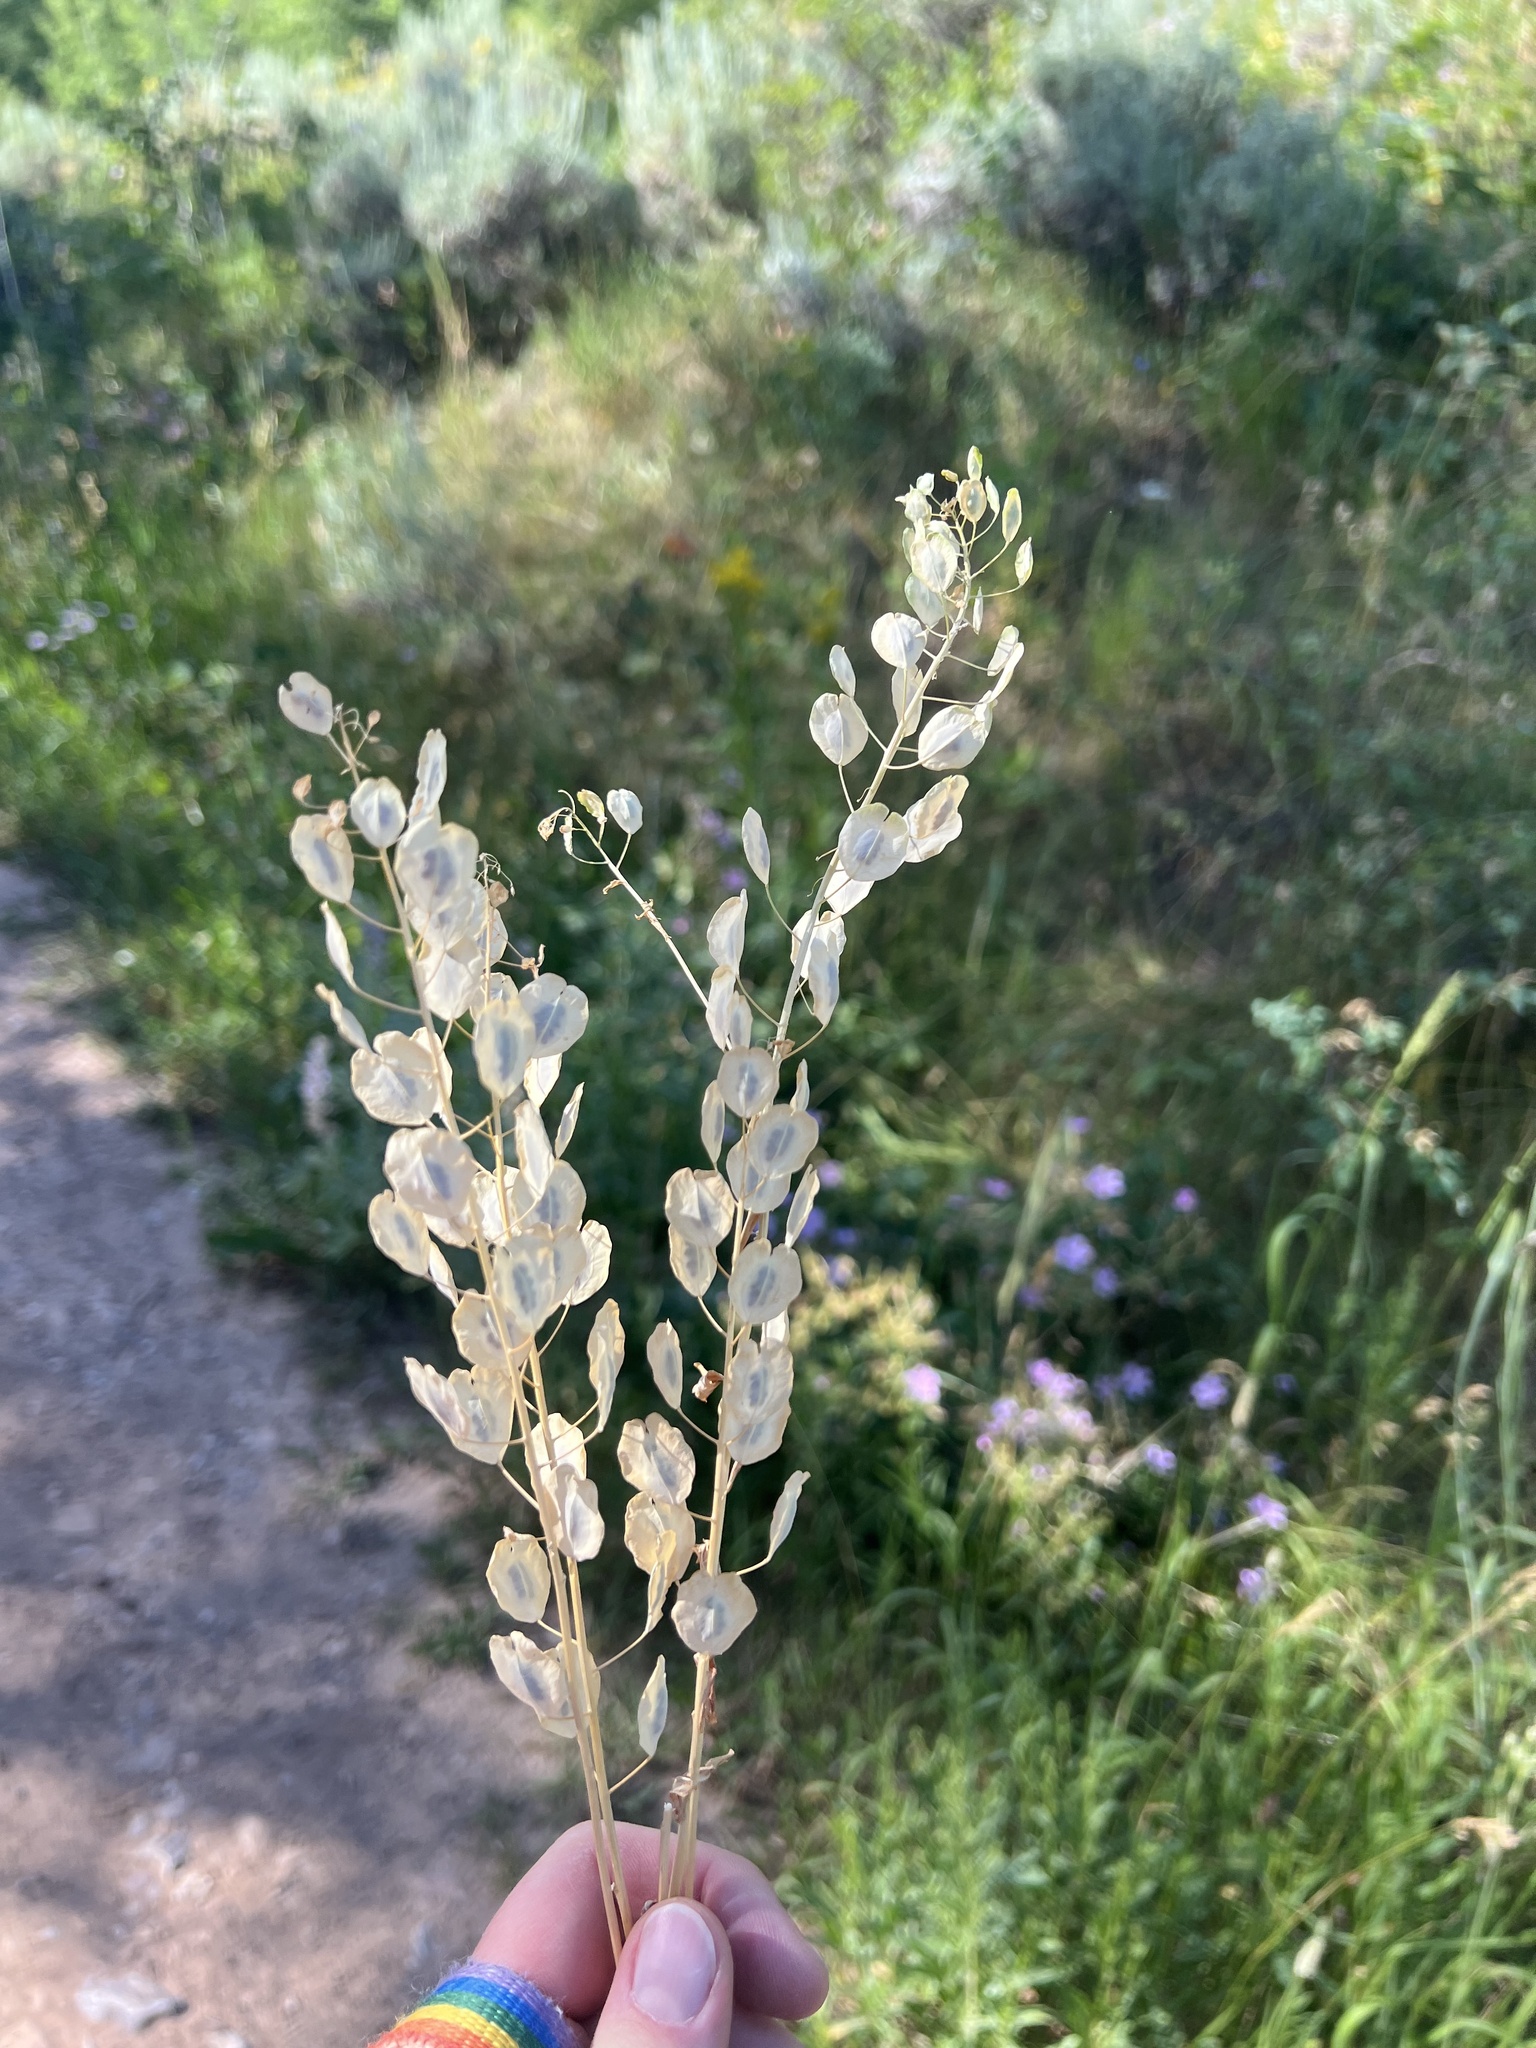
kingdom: Plantae
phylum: Tracheophyta
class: Magnoliopsida
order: Brassicales
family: Brassicaceae
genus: Thlaspi
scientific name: Thlaspi arvense
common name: Field pennycress
